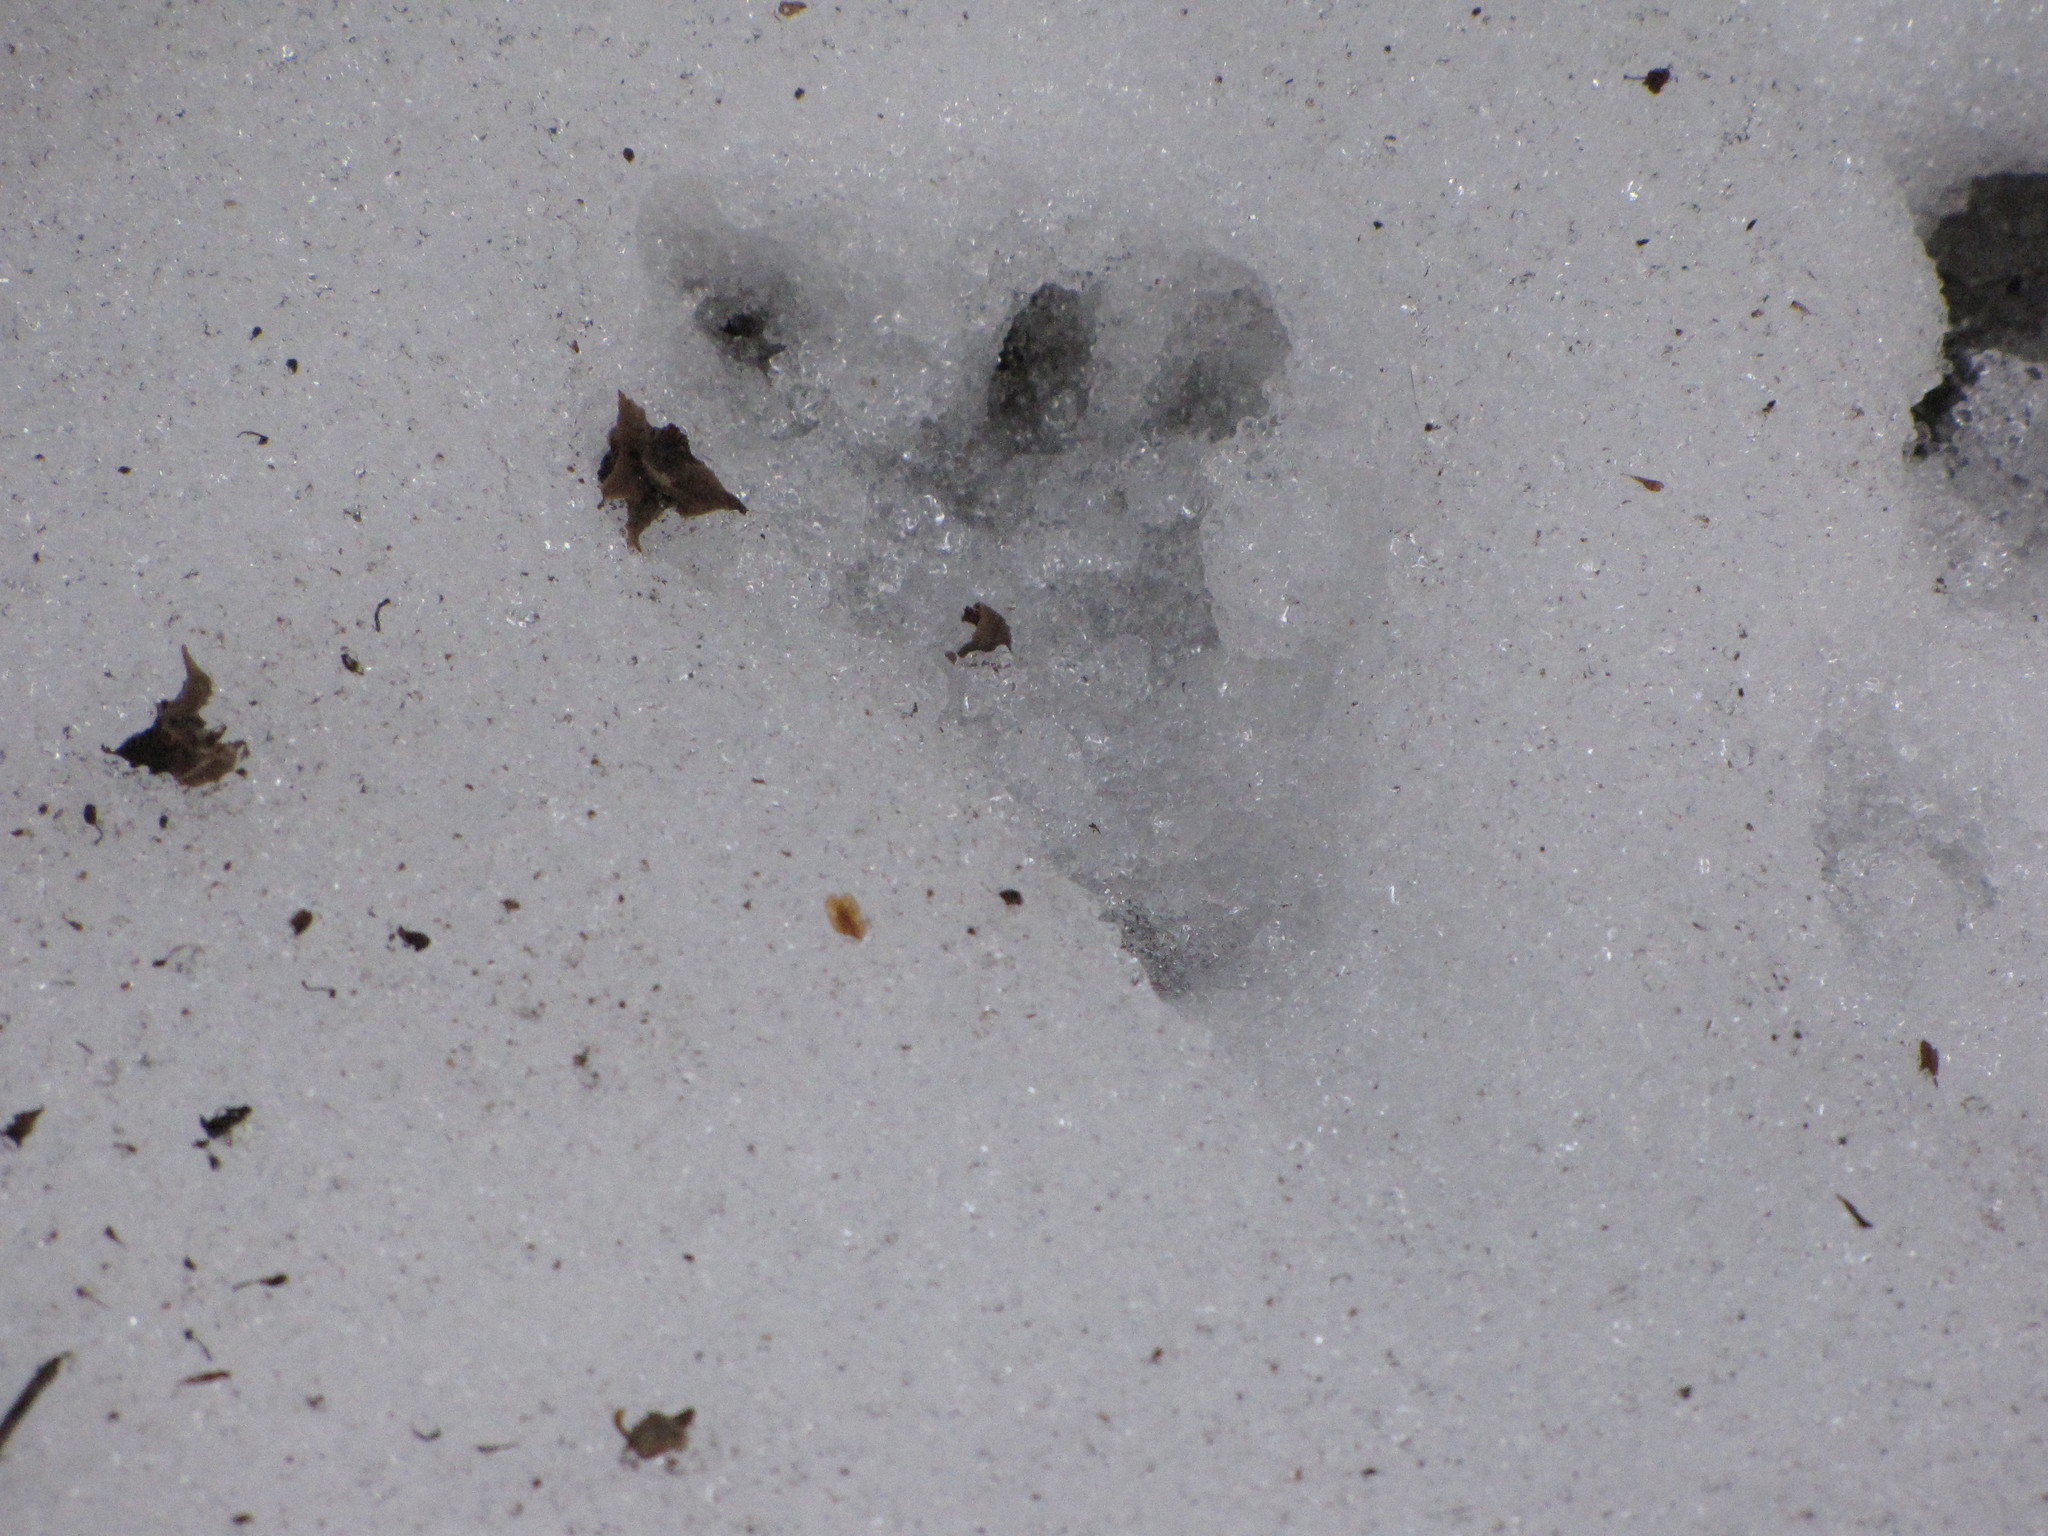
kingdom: Animalia
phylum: Chordata
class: Mammalia
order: Carnivora
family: Procyonidae
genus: Procyon
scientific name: Procyon lotor
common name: Raccoon
